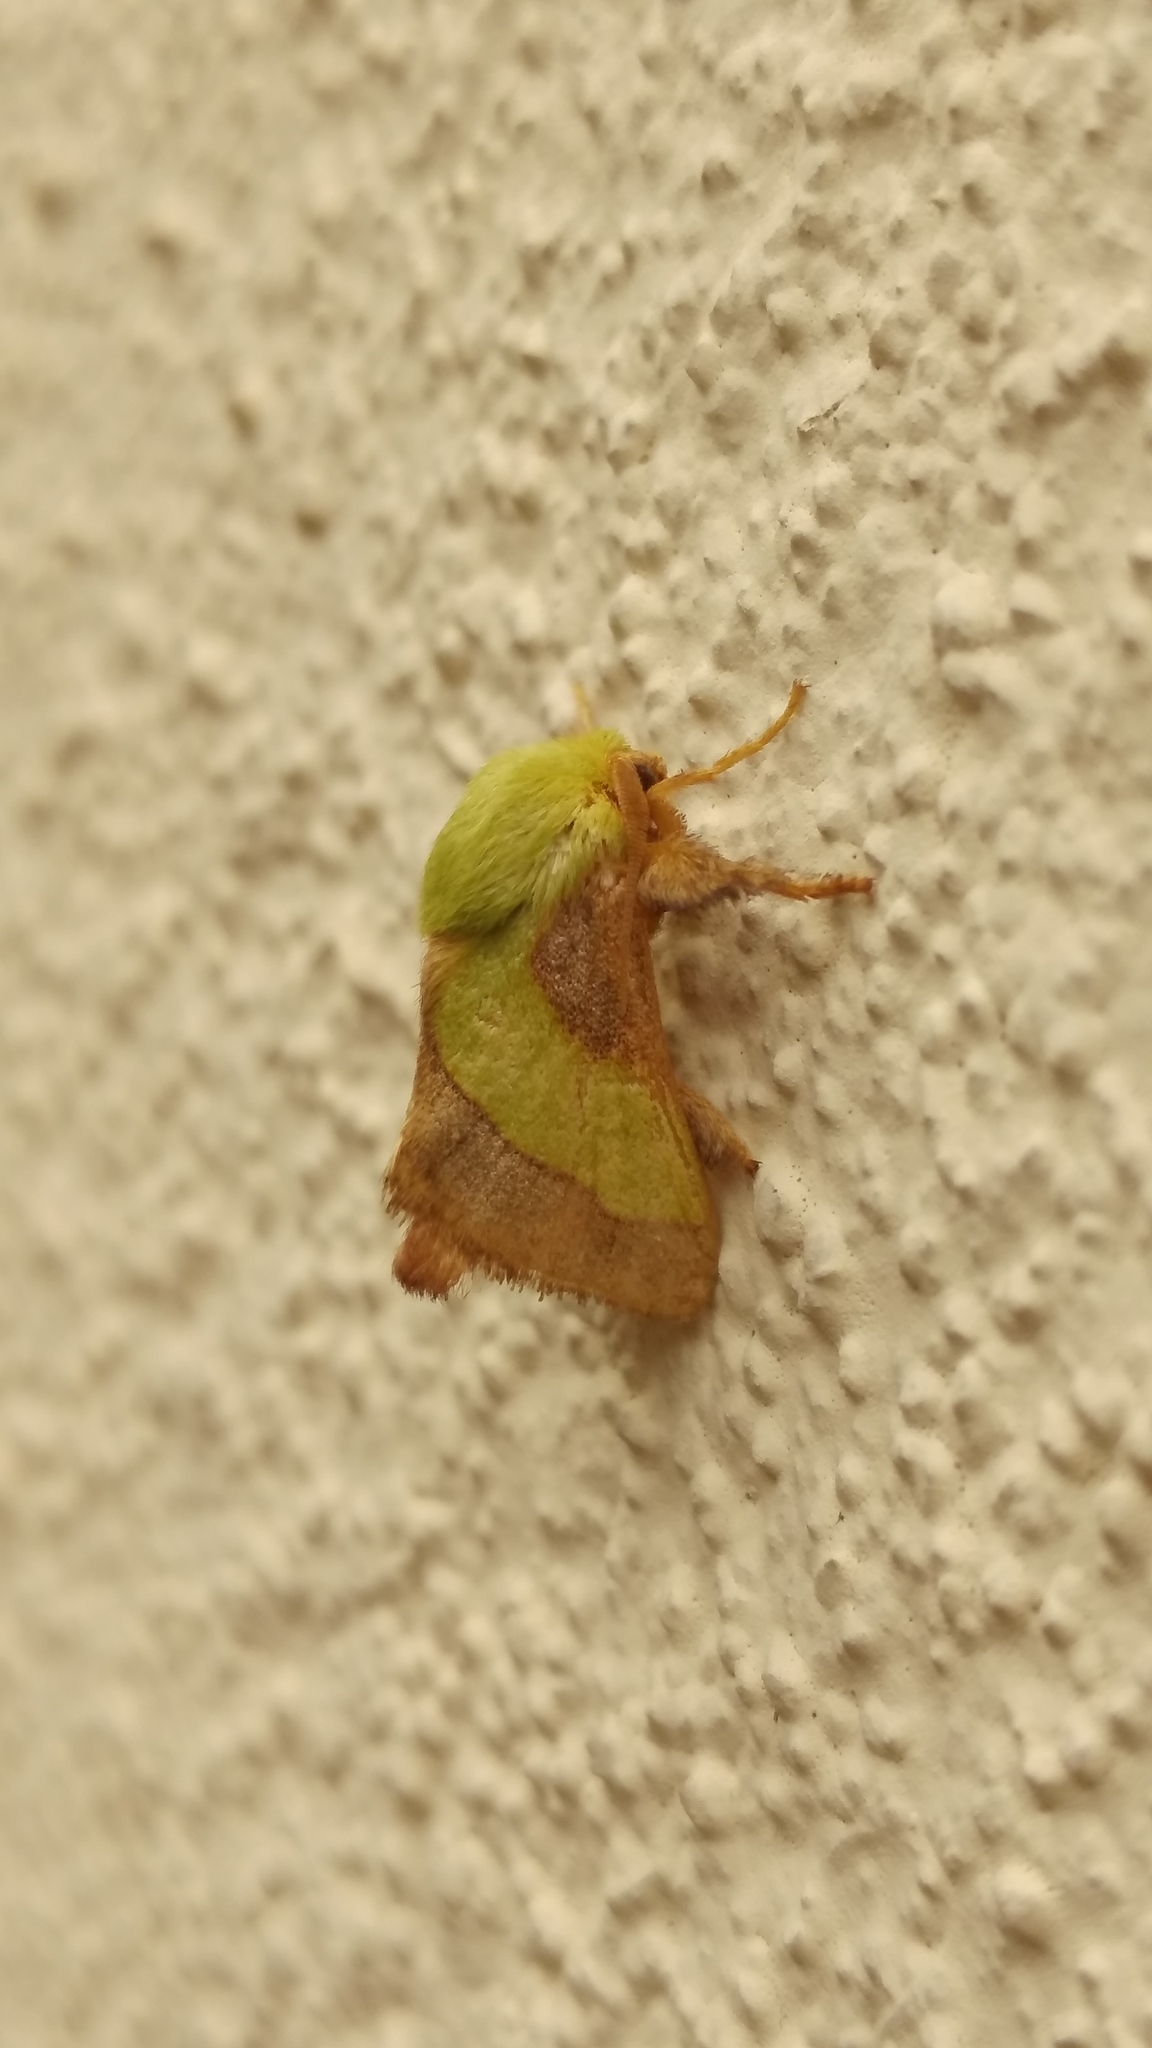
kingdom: Animalia
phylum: Arthropoda
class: Insecta
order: Lepidoptera
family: Limacodidae
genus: Parasa
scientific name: Parasa chloris
